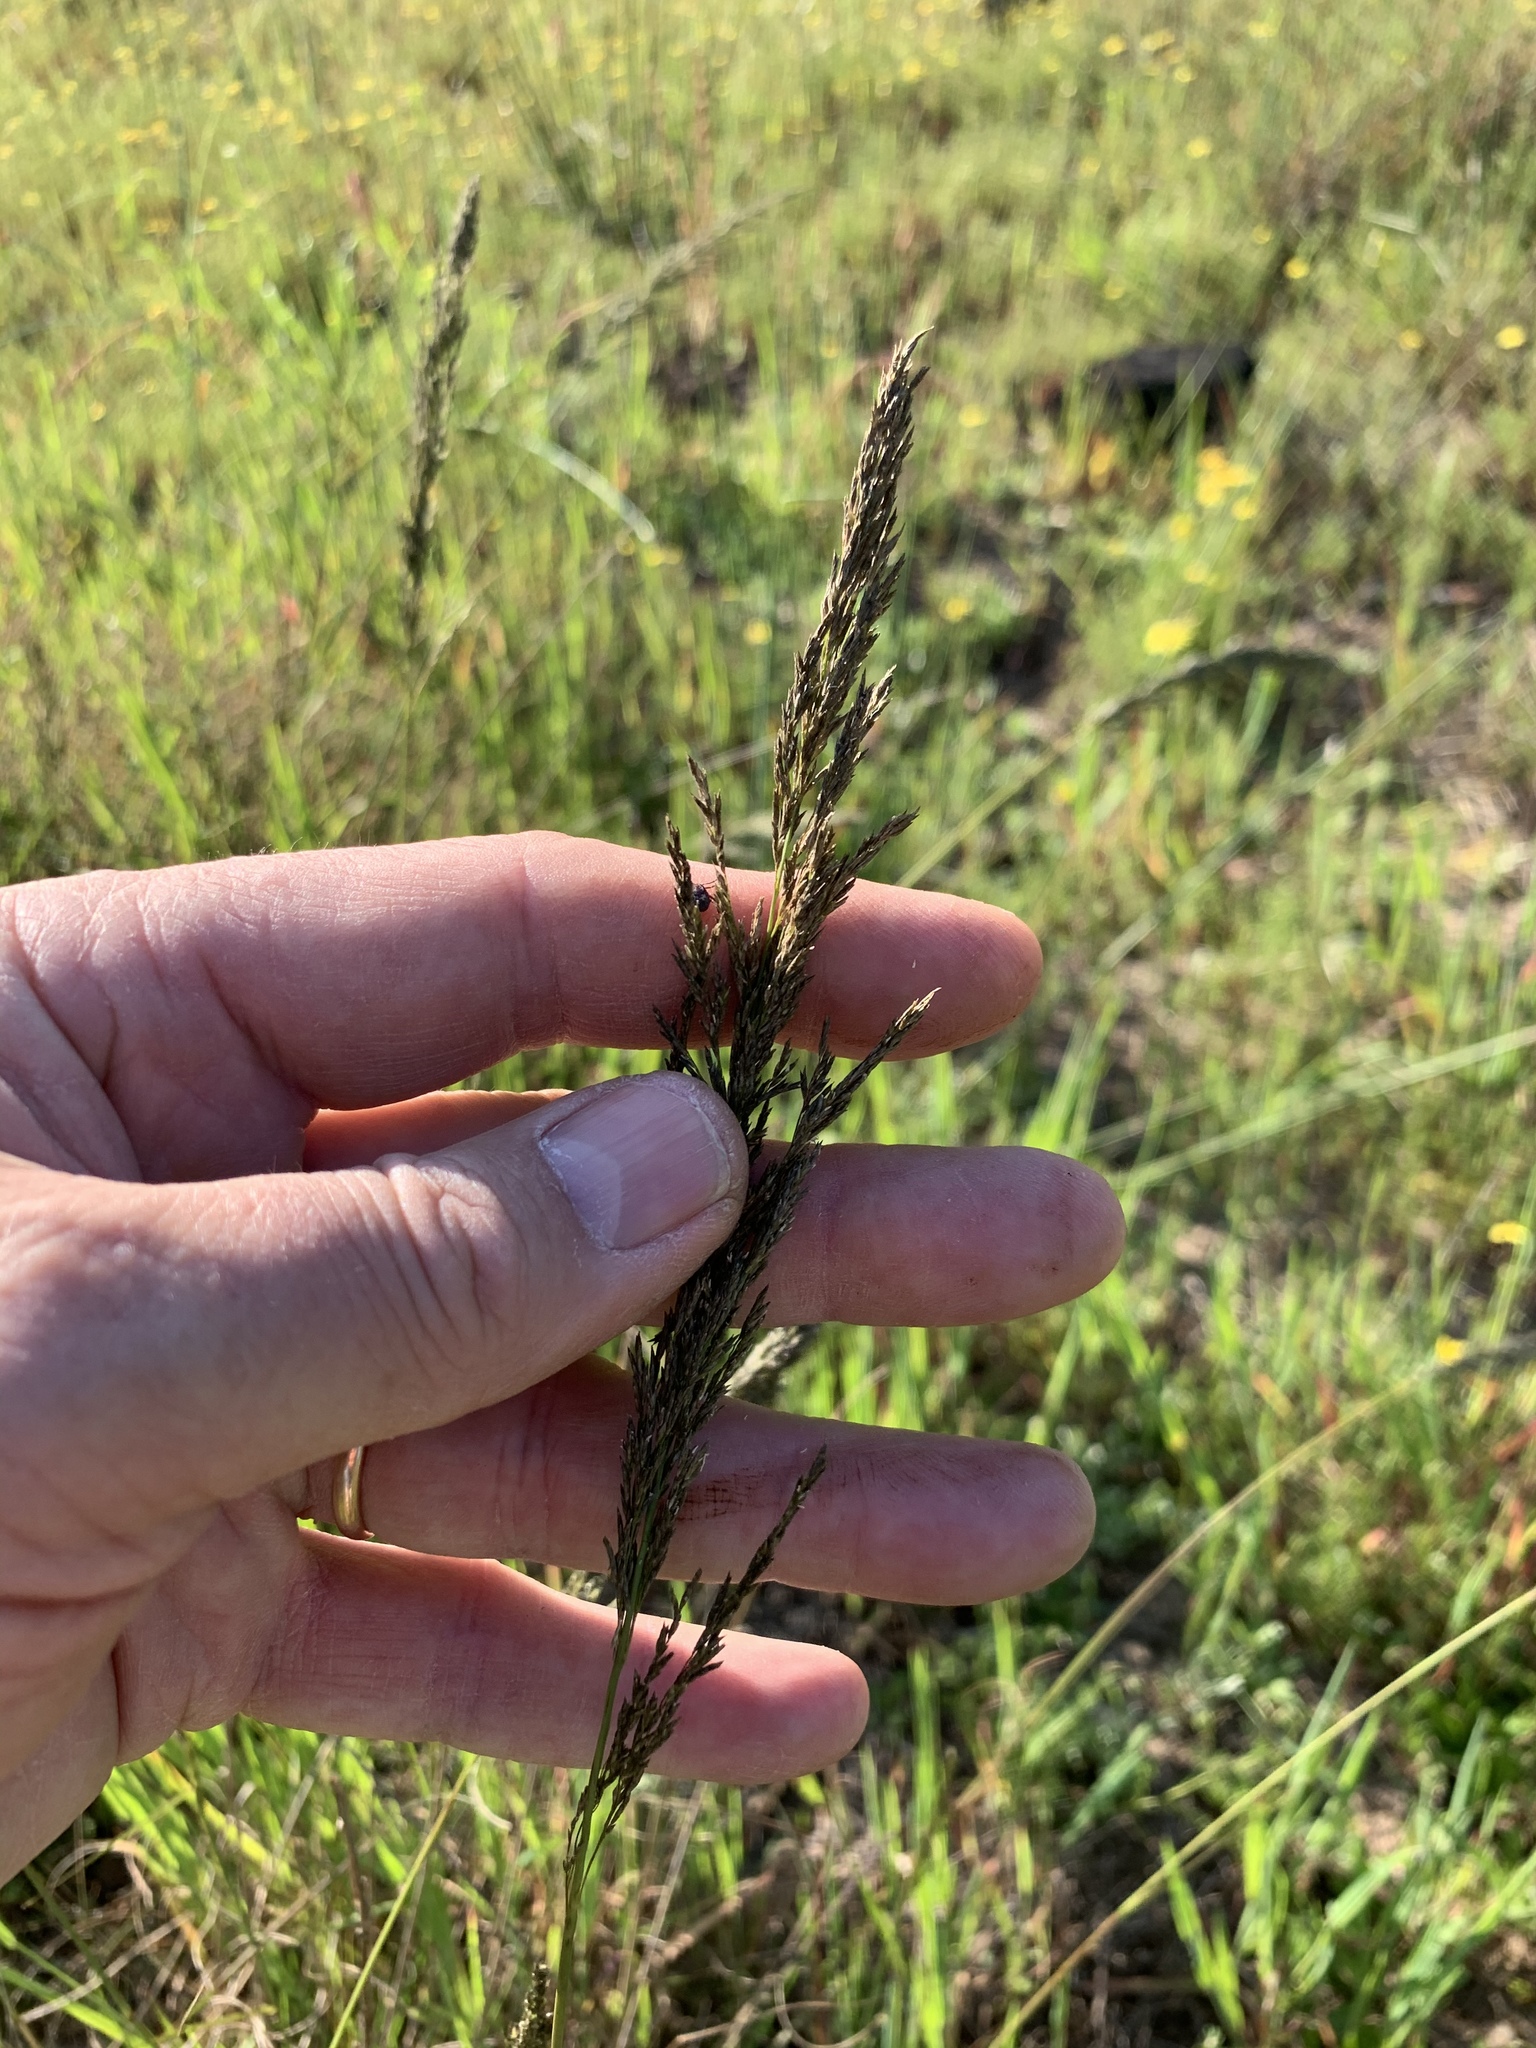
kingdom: Plantae
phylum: Tracheophyta
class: Liliopsida
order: Poales
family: Poaceae
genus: Eragrostis
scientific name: Eragrostis curvula
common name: African love-grass
